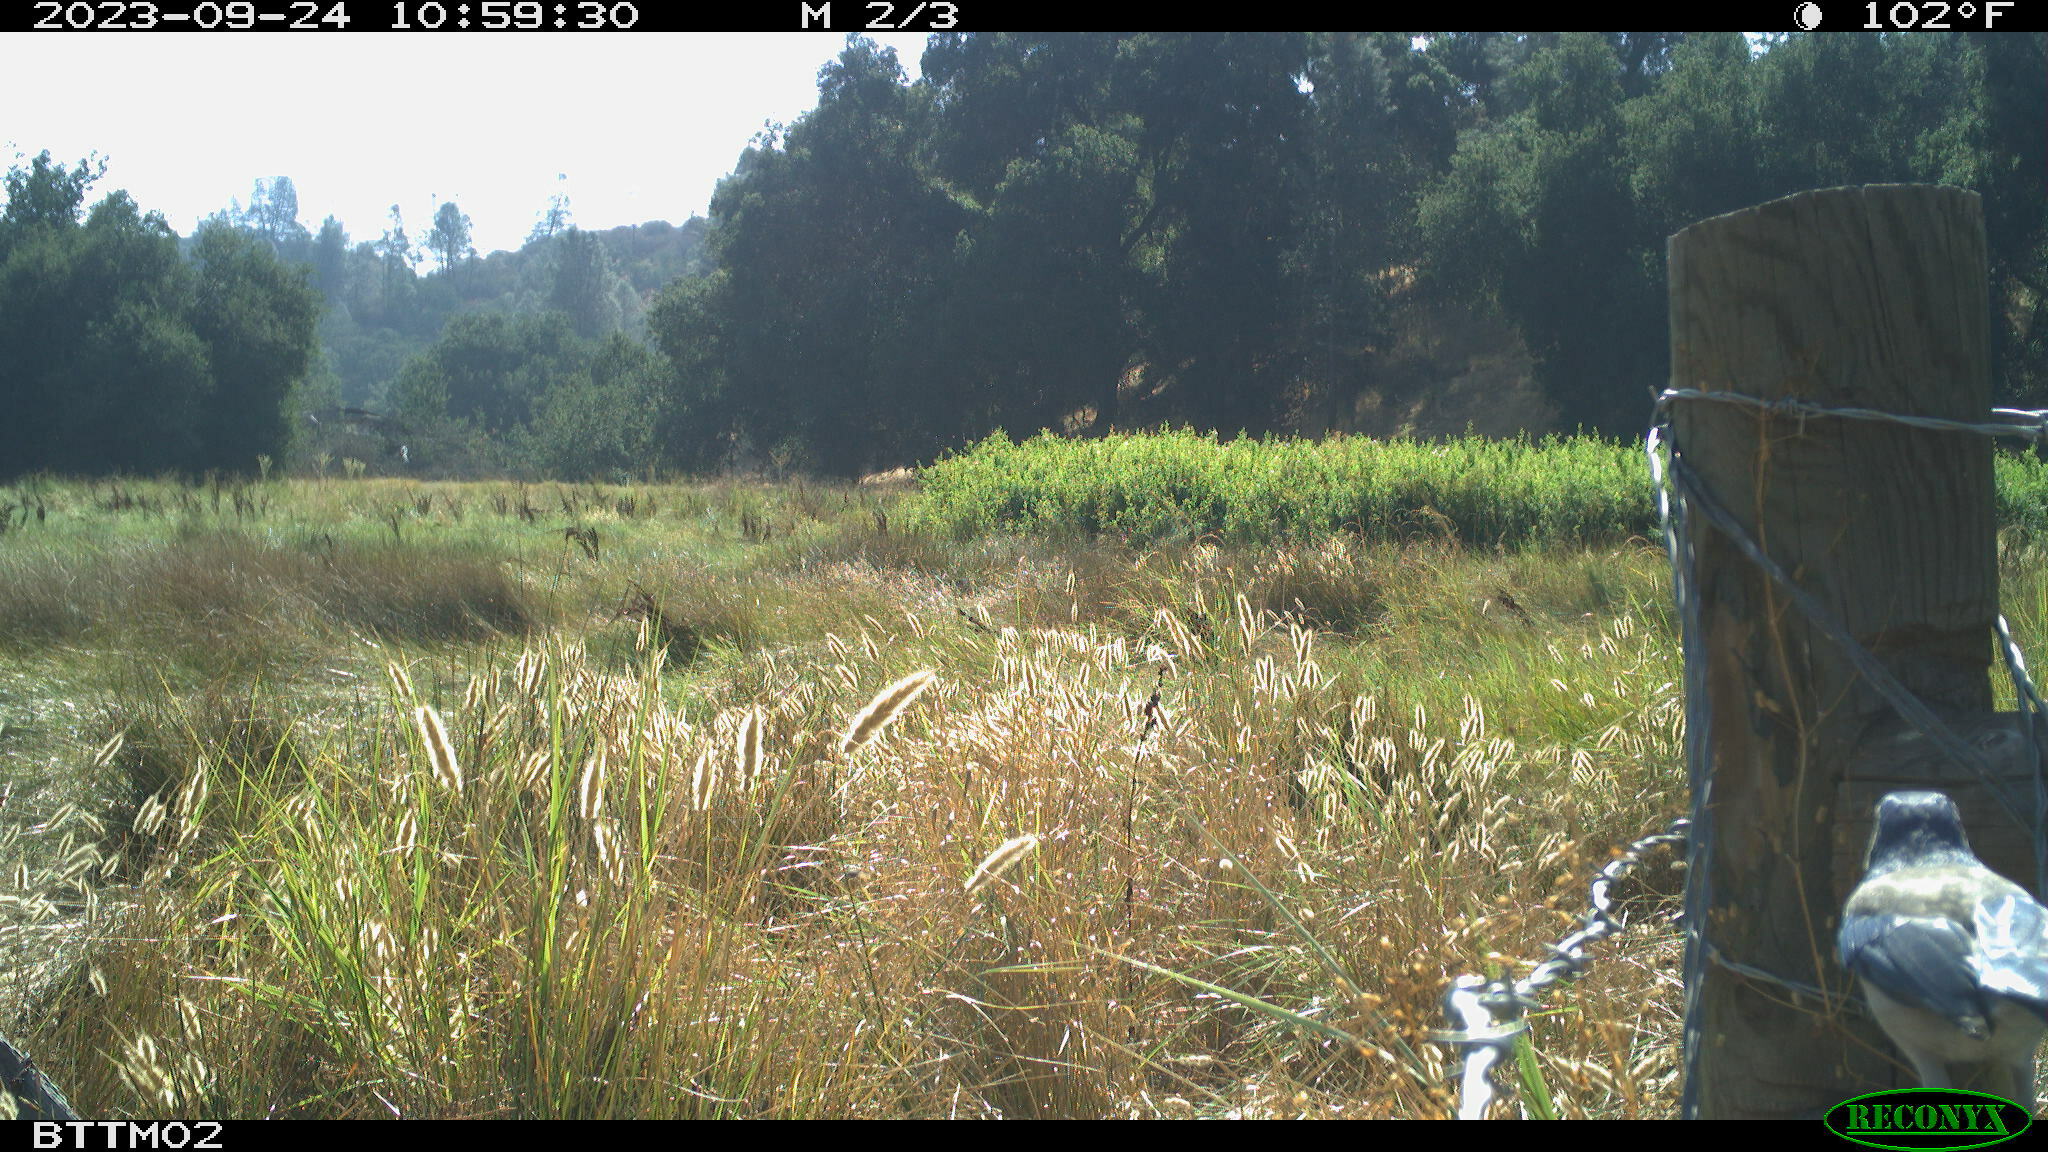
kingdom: Animalia
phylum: Chordata
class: Aves
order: Passeriformes
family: Corvidae
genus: Aphelocoma
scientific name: Aphelocoma californica
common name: California scrub-jay
